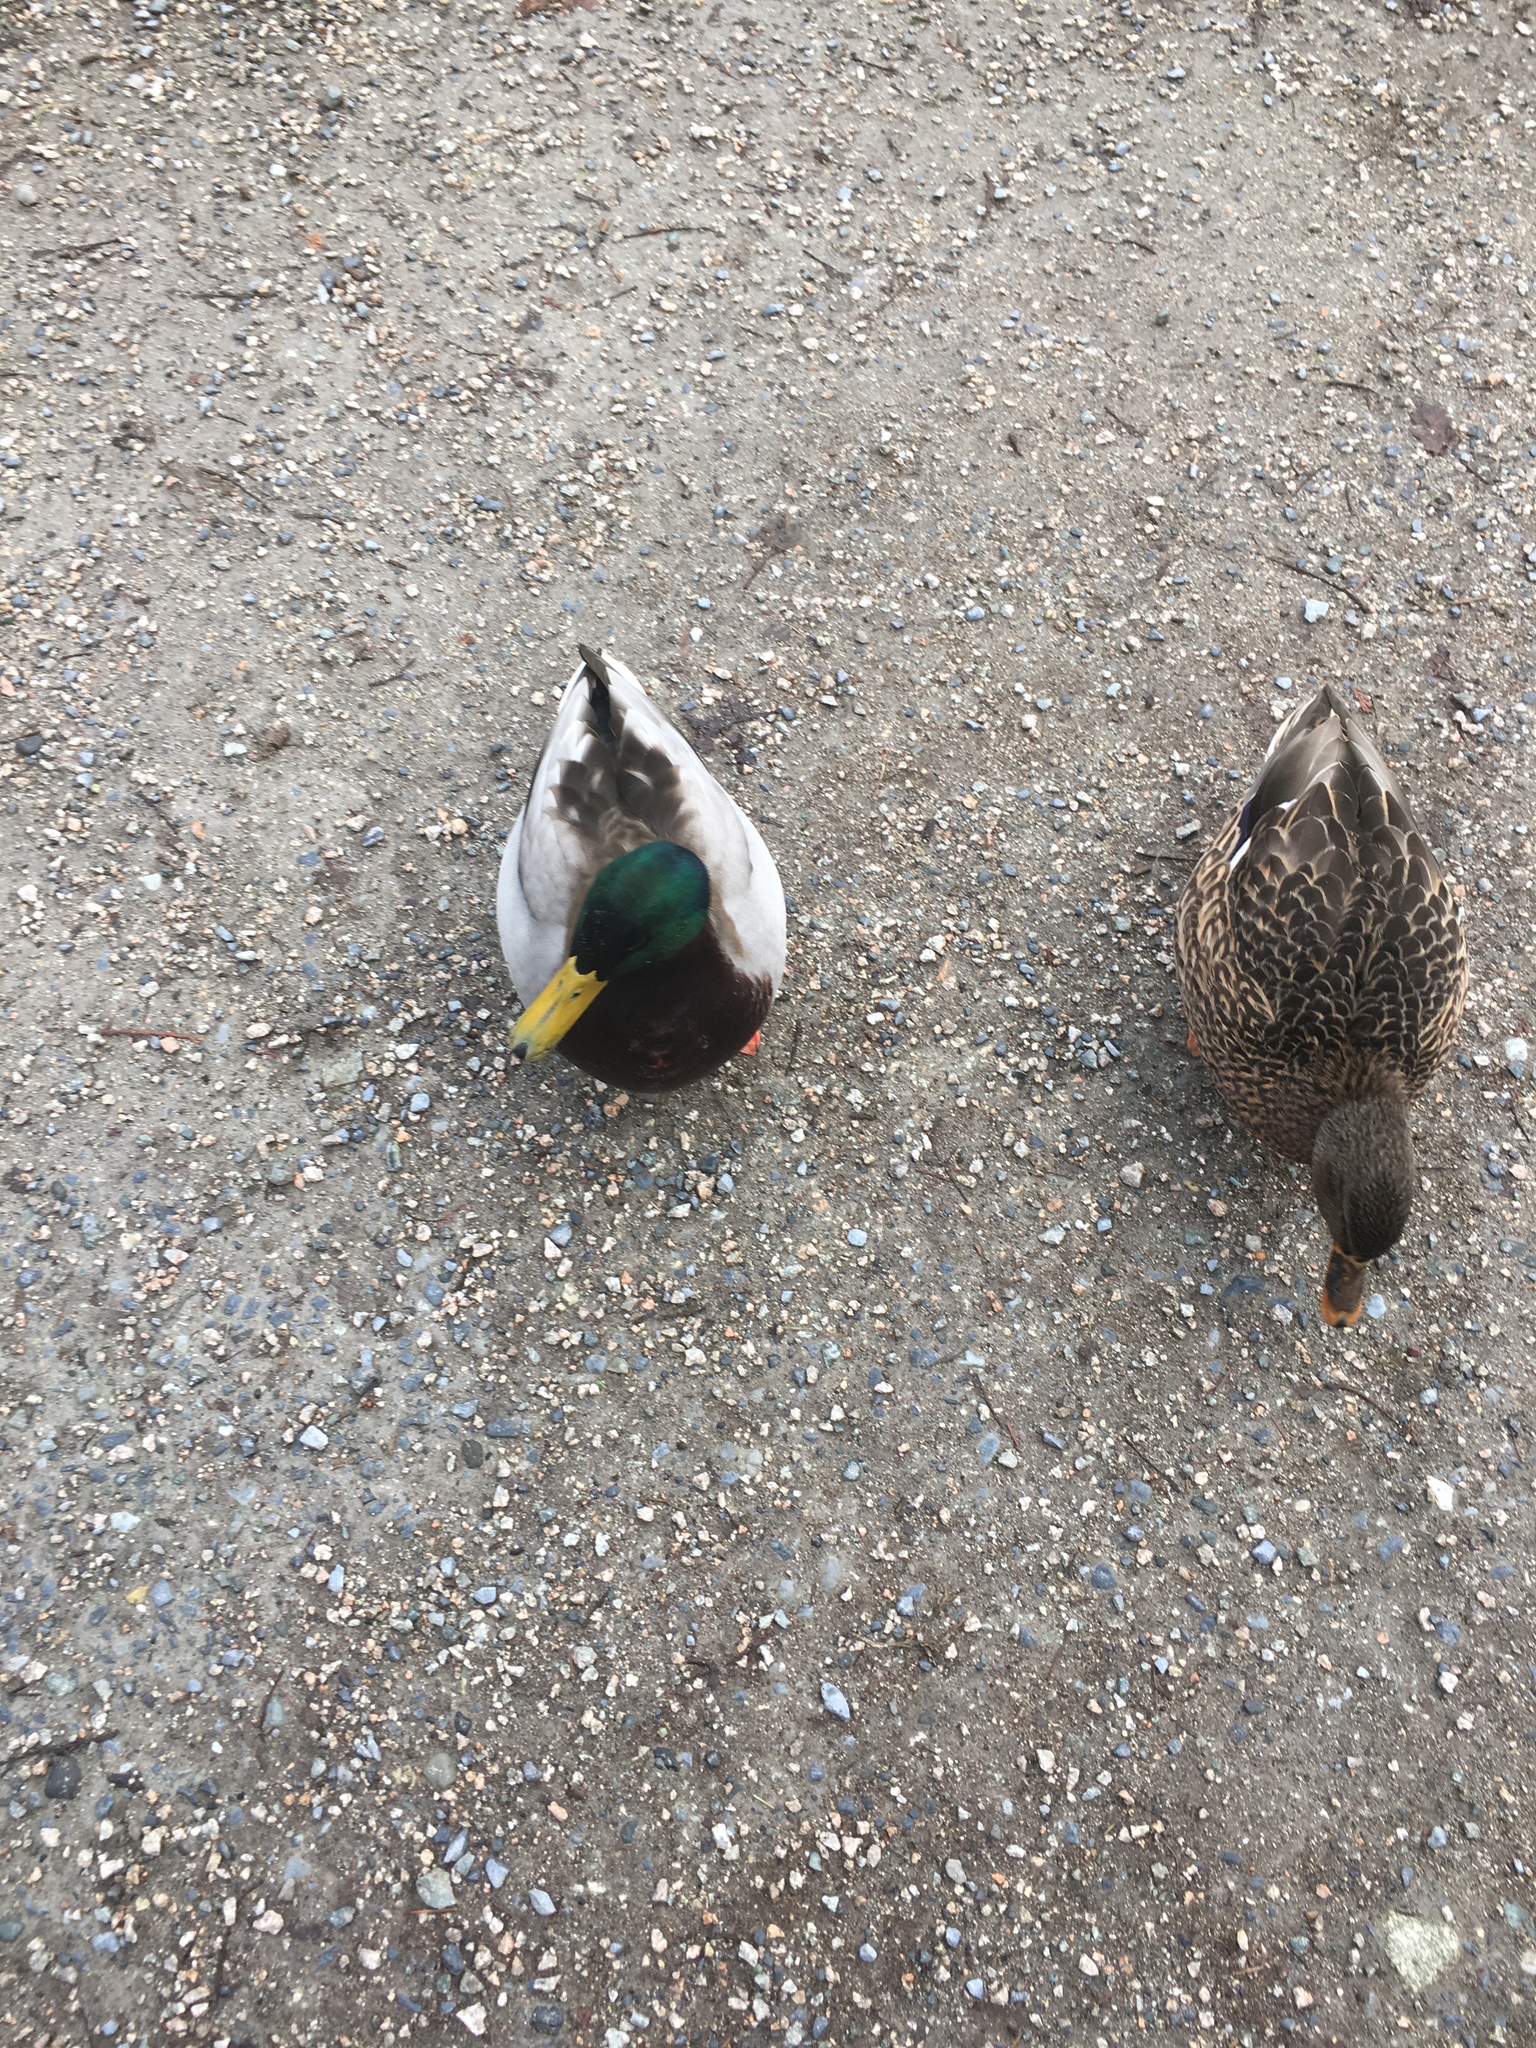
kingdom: Animalia
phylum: Chordata
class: Aves
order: Anseriformes
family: Anatidae
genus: Anas
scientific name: Anas platyrhynchos
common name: Mallard
